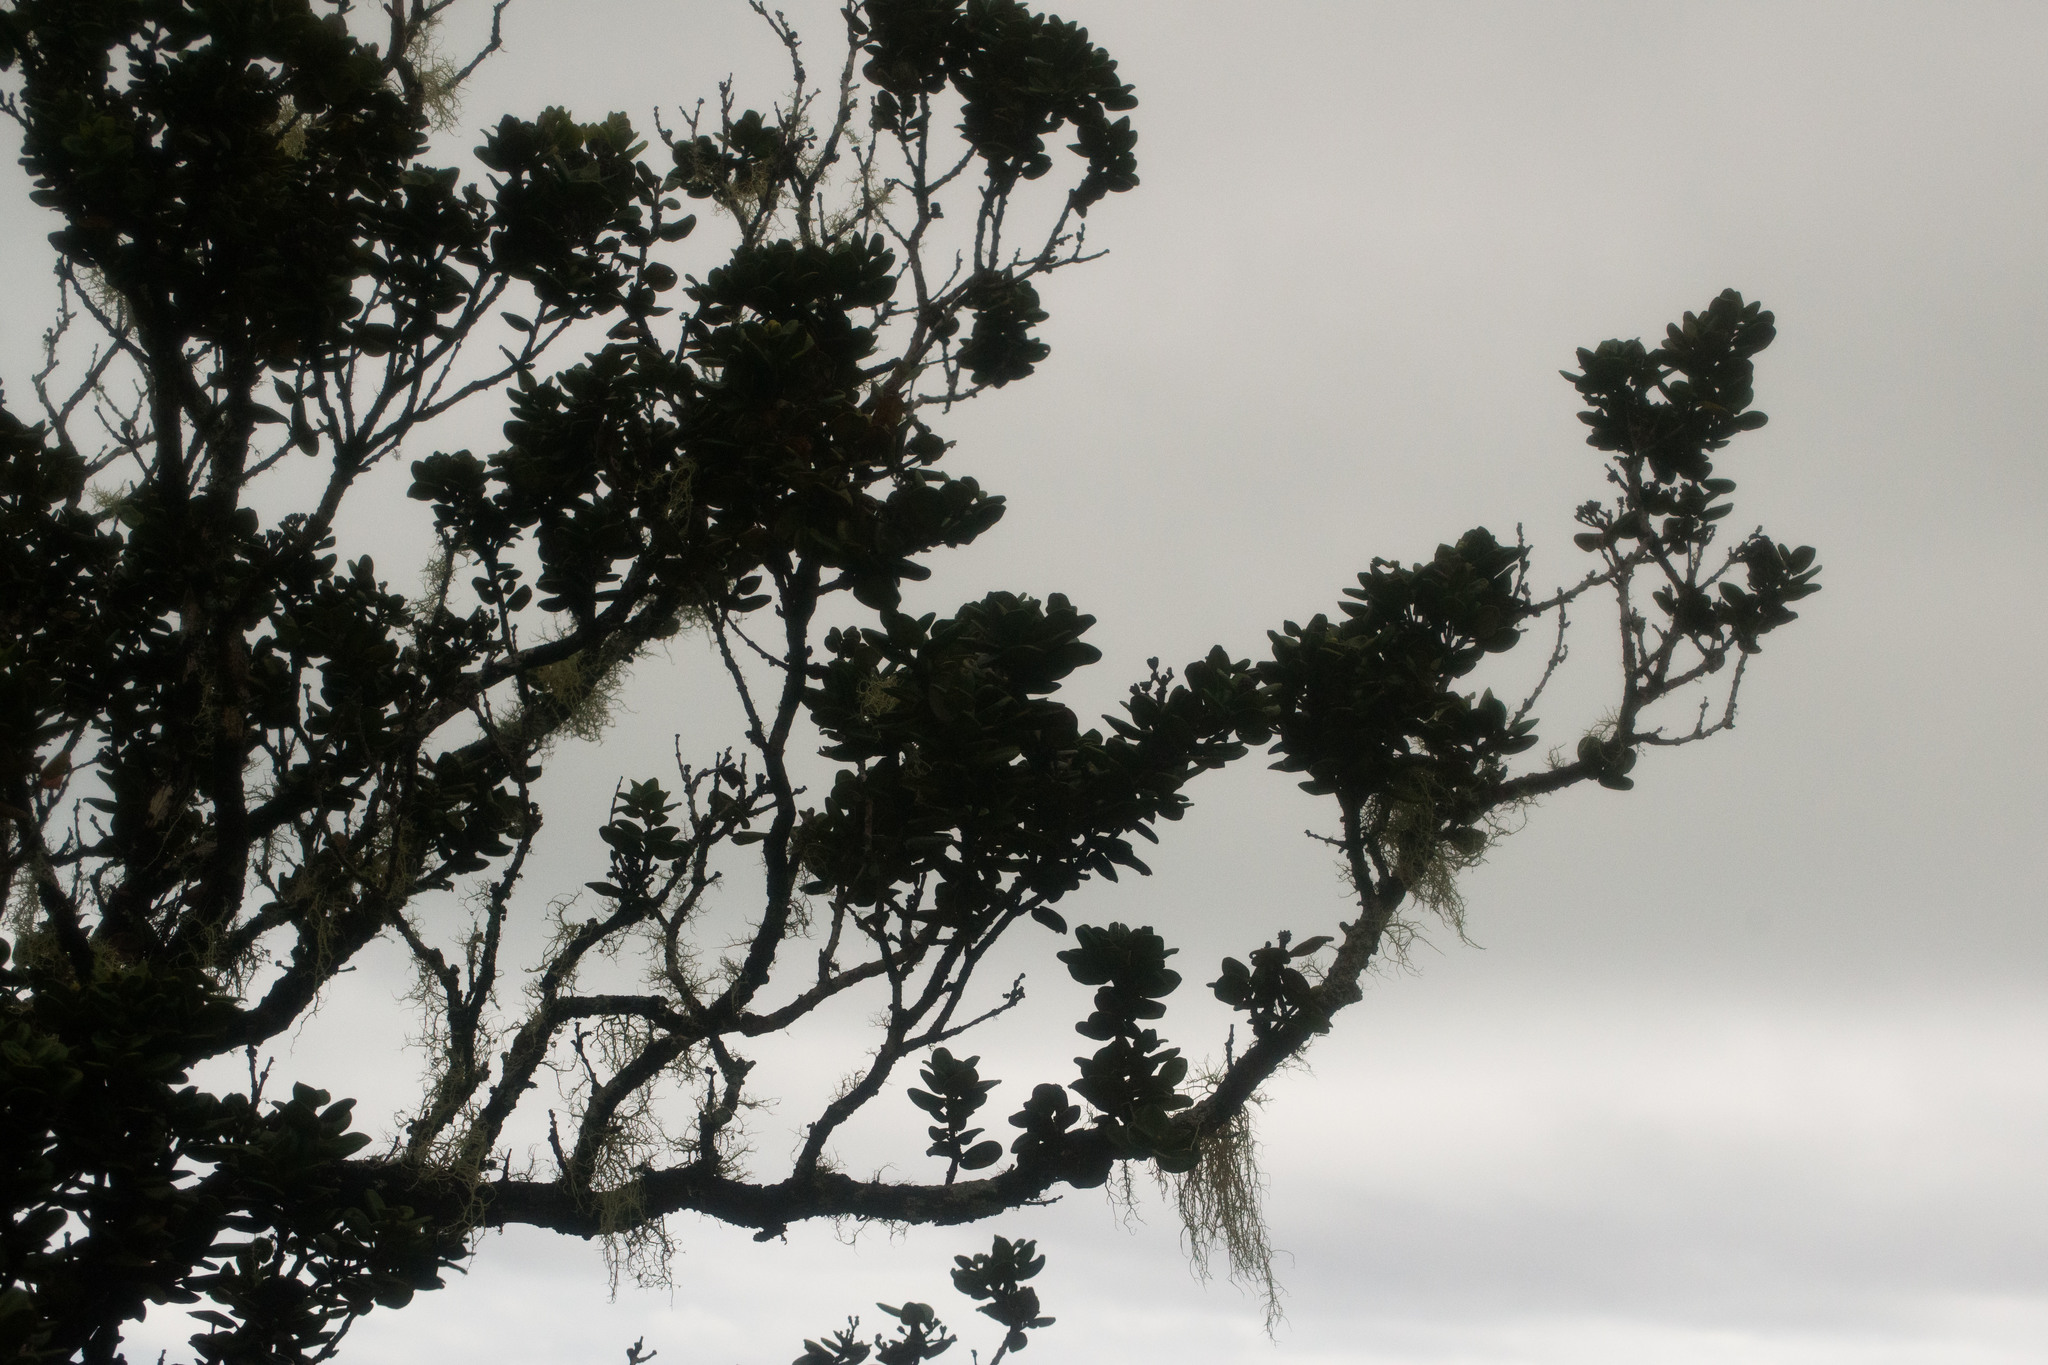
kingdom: Plantae
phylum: Tracheophyta
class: Magnoliopsida
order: Myrtales
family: Myrtaceae
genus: Metrosideros
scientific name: Metrosideros polymorpha
